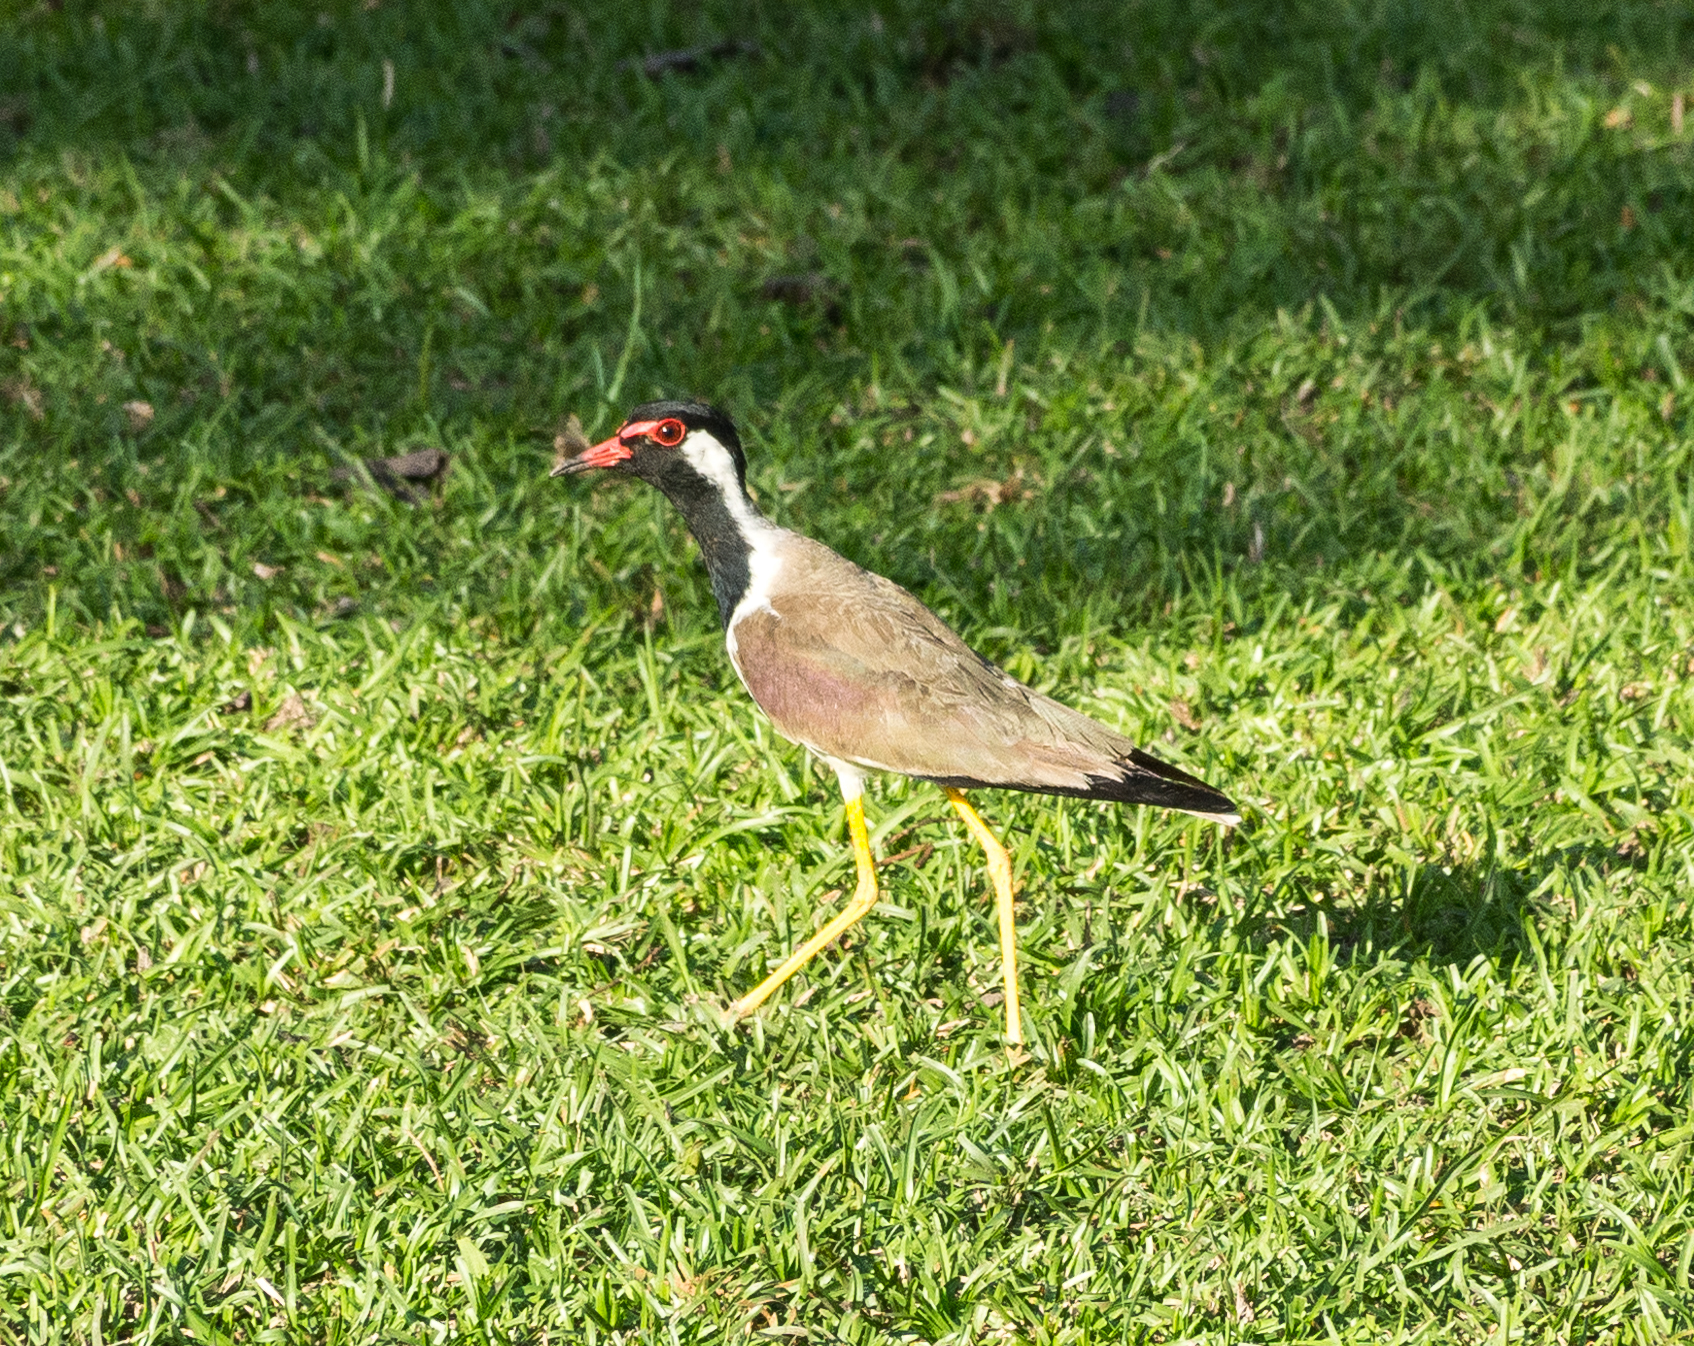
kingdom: Animalia
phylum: Chordata
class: Aves
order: Charadriiformes
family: Charadriidae
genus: Vanellus
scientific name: Vanellus indicus
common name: Red-wattled lapwing
